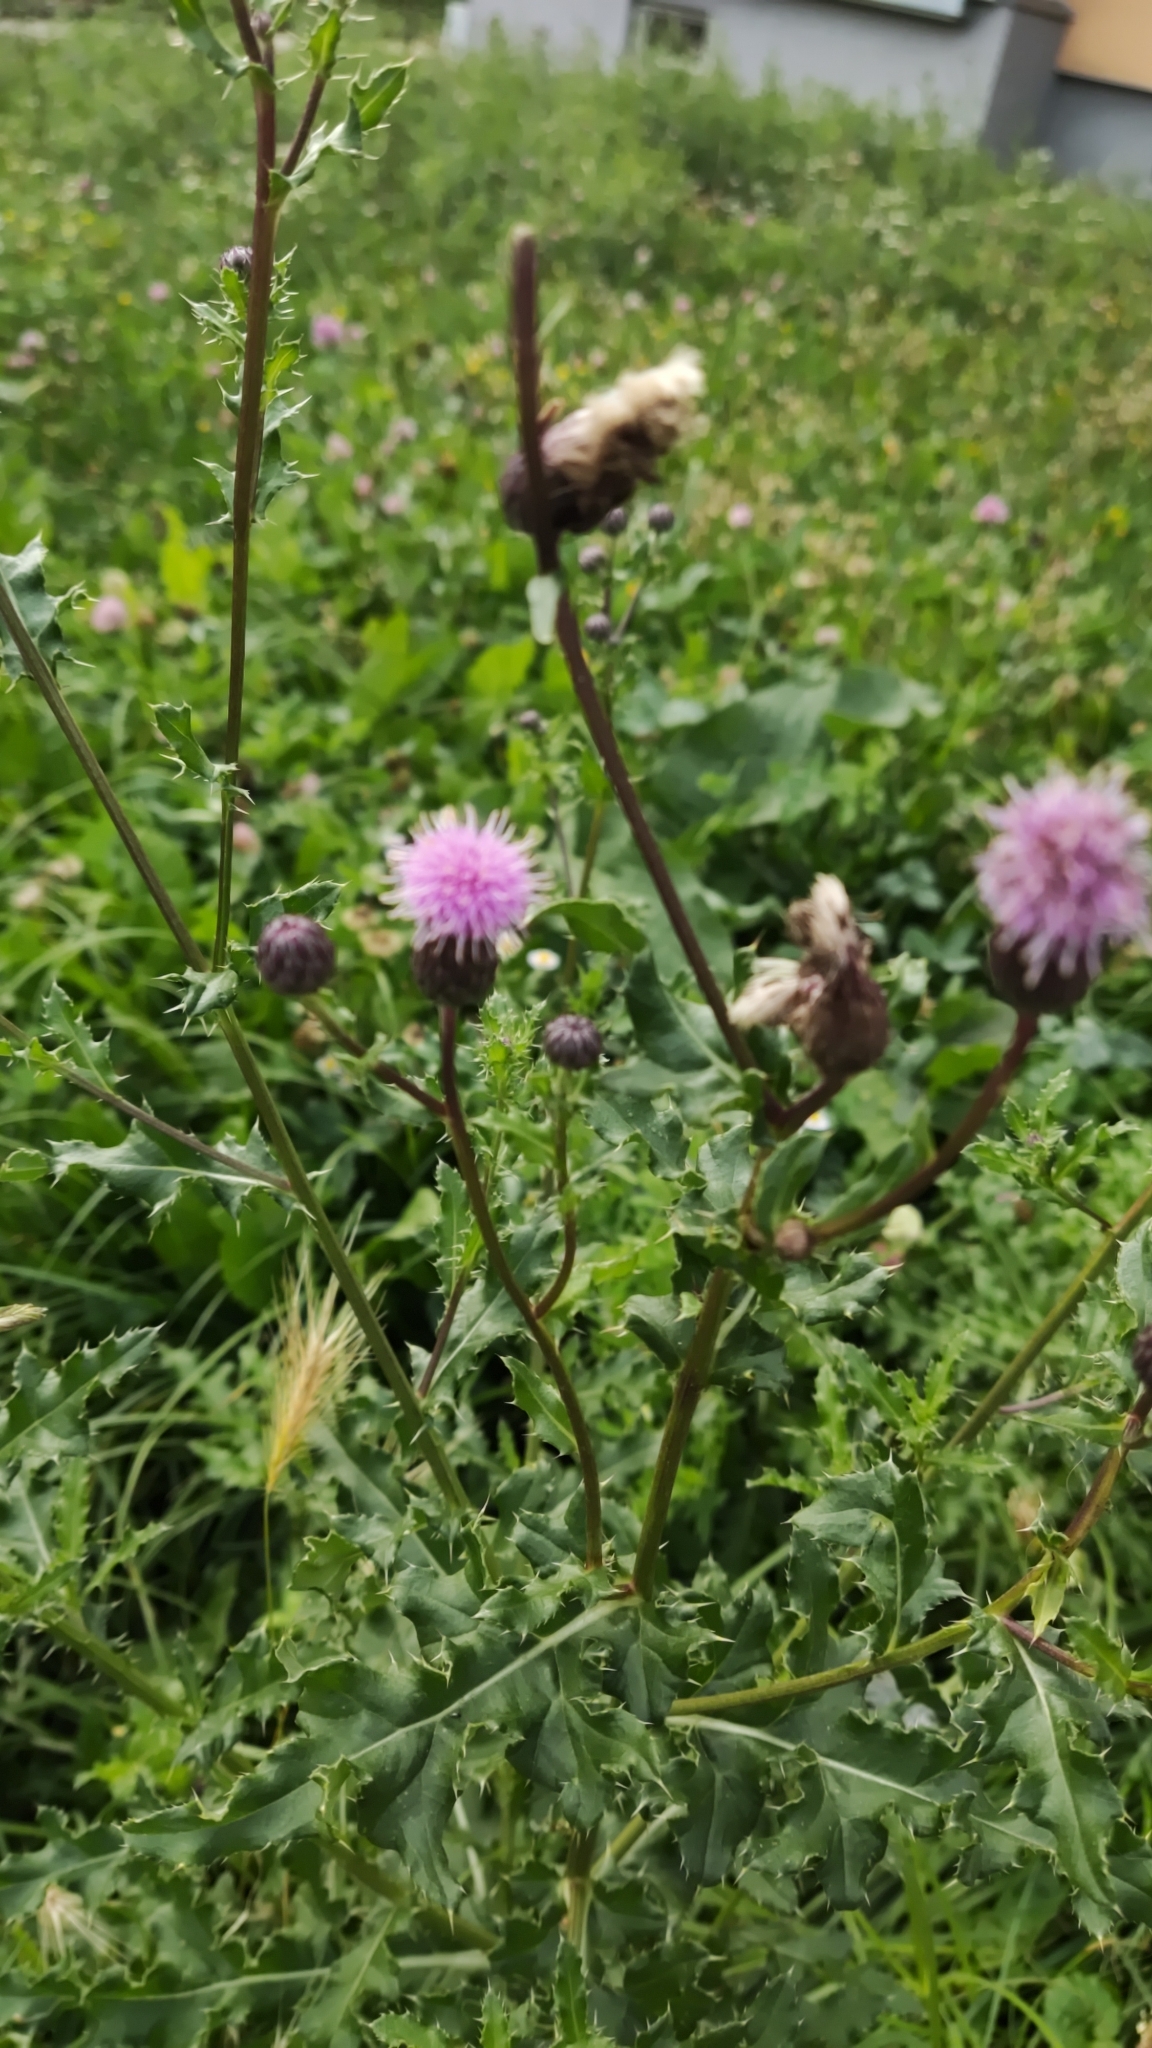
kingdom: Plantae
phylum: Tracheophyta
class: Magnoliopsida
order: Asterales
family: Asteraceae
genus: Cirsium
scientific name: Cirsium arvense
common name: Creeping thistle
